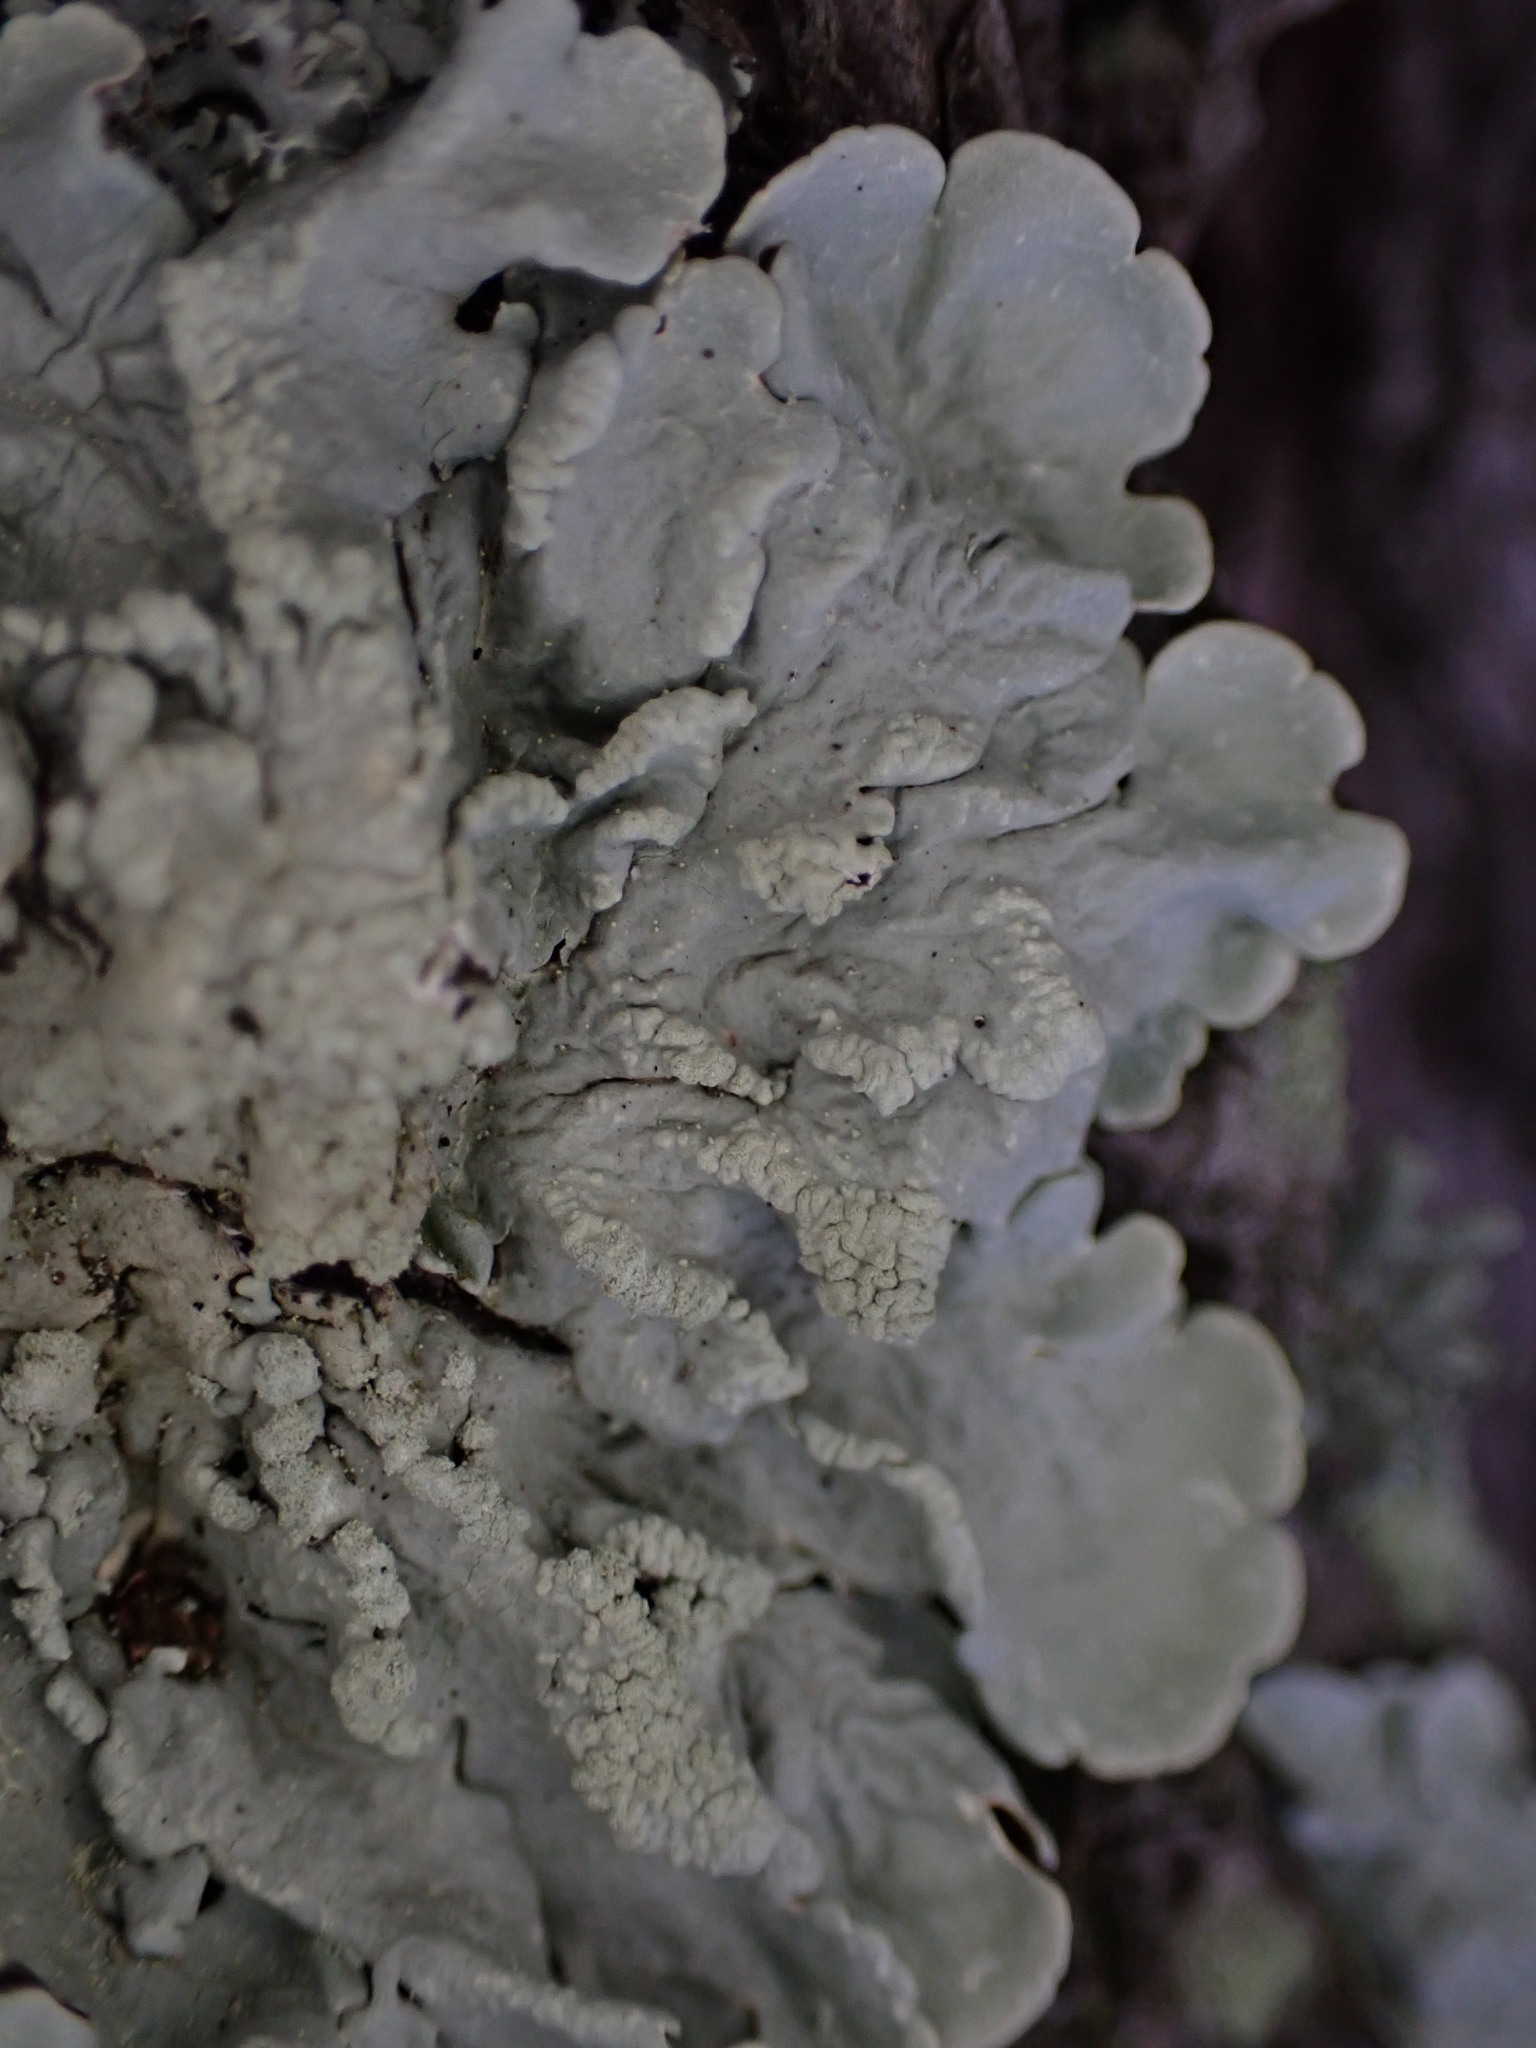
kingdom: Fungi
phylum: Ascomycota
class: Lecanoromycetes
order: Lecanorales
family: Parmeliaceae
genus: Flavoparmelia
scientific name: Flavoparmelia soredians
